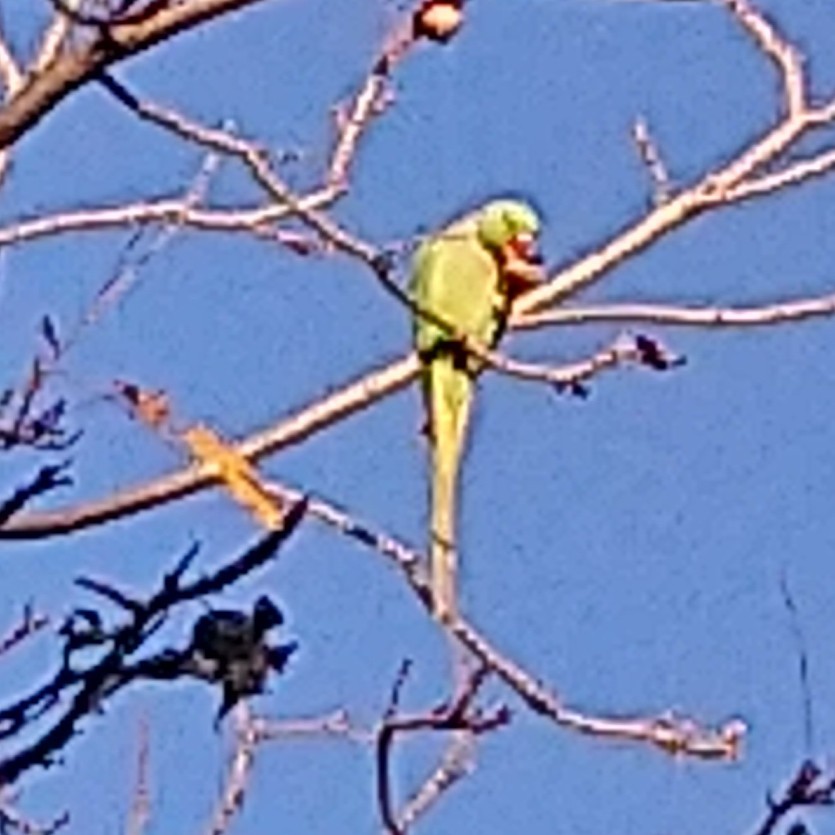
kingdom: Animalia
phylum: Chordata
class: Aves
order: Psittaciformes
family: Psittacidae
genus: Psittacula
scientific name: Psittacula krameri
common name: Rose-ringed parakeet
